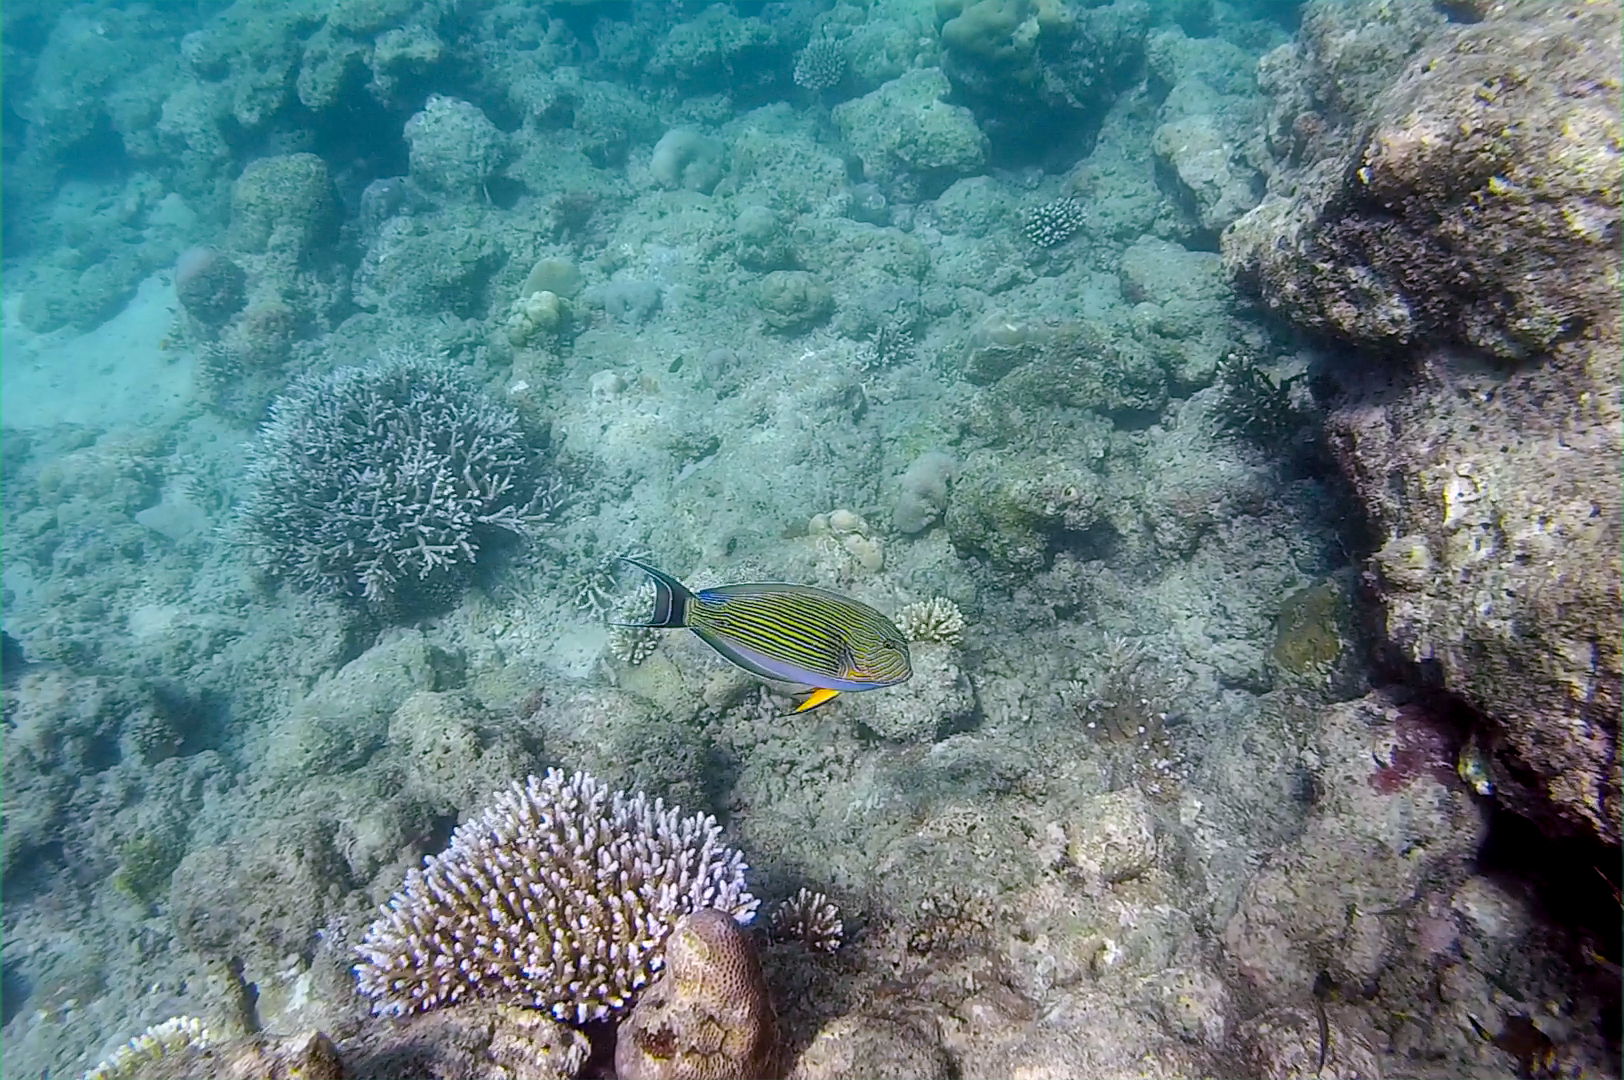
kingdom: Animalia
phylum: Chordata
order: Perciformes
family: Acanthuridae
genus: Acanthurus
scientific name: Acanthurus lineatus
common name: Striped surgeonfish
